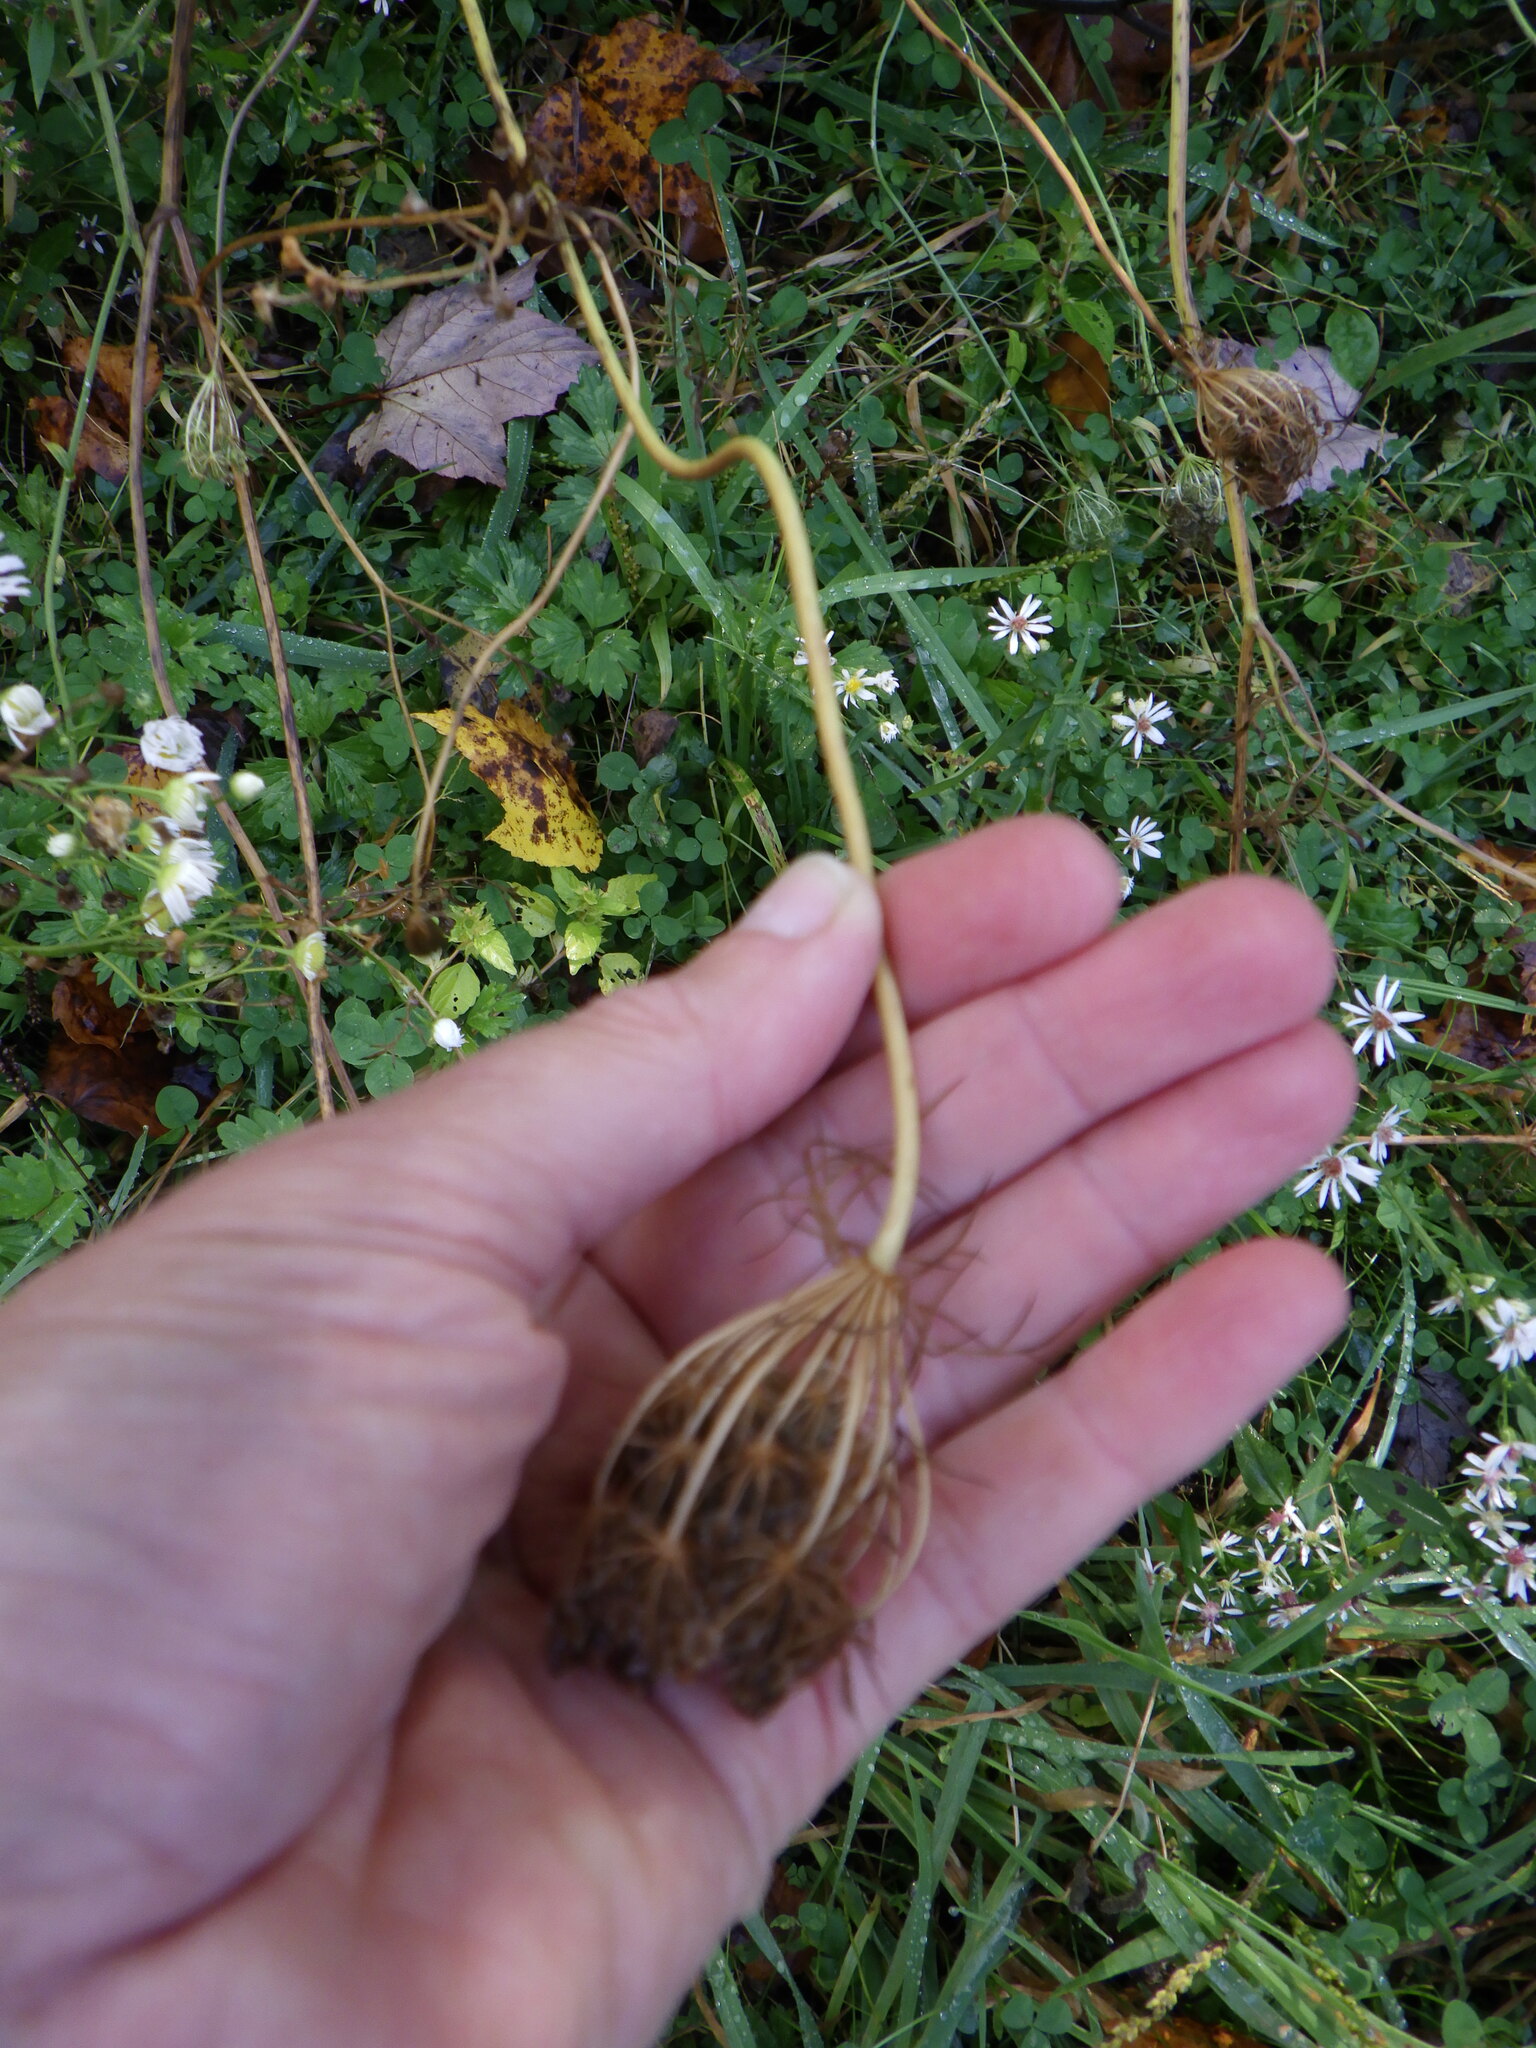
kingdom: Plantae
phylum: Tracheophyta
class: Magnoliopsida
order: Apiales
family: Apiaceae
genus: Daucus
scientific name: Daucus carota
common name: Wild carrot
